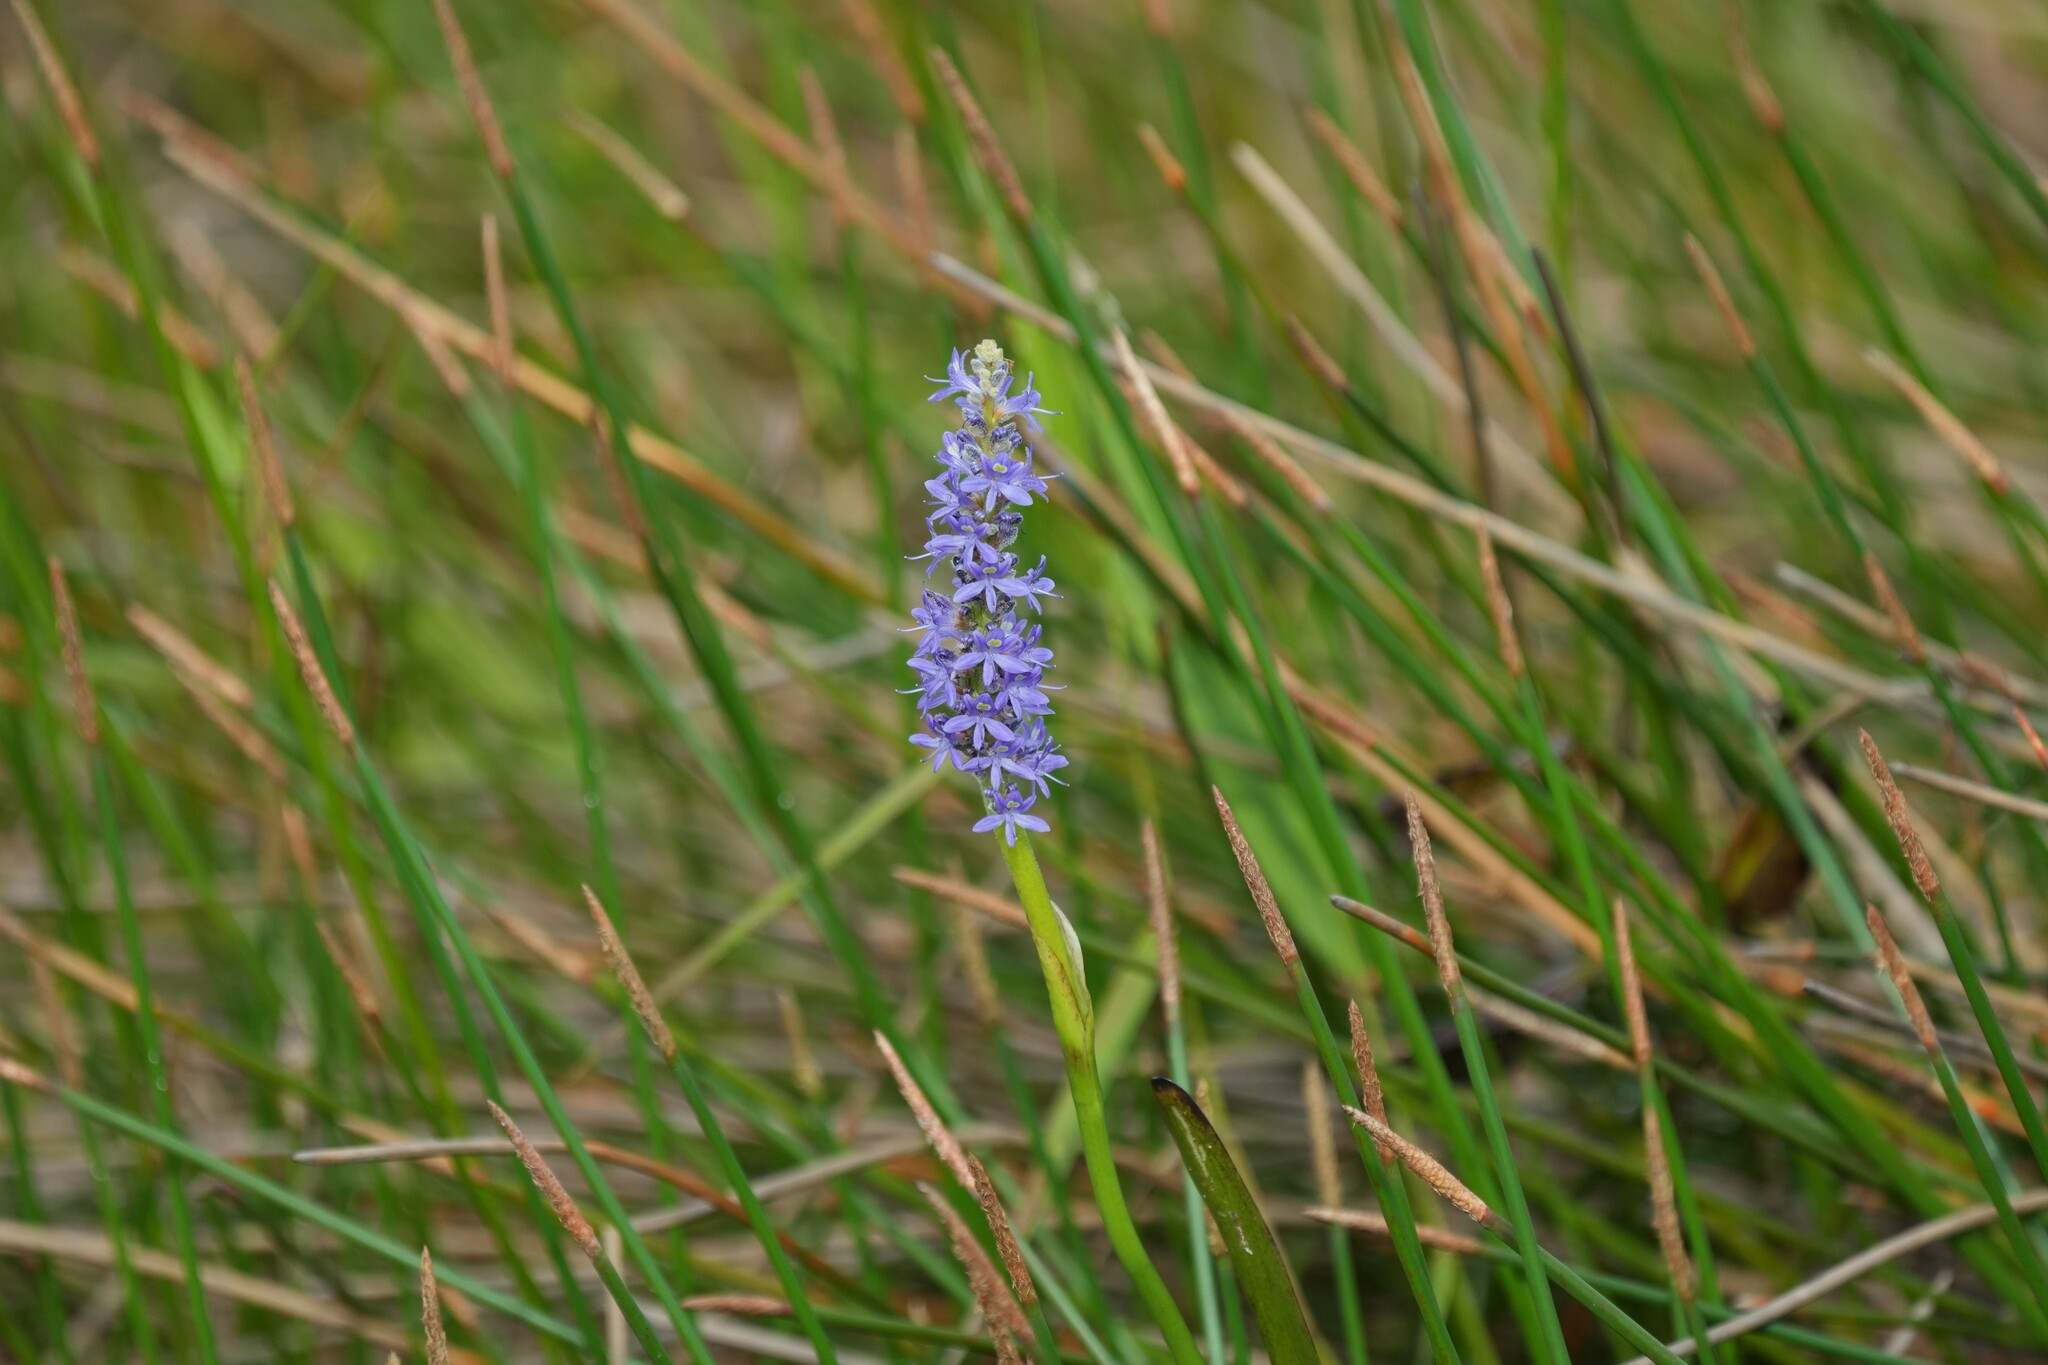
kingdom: Plantae
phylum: Tracheophyta
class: Liliopsida
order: Commelinales
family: Pontederiaceae
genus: Pontederia
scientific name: Pontederia cordata
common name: Pickerelweed
